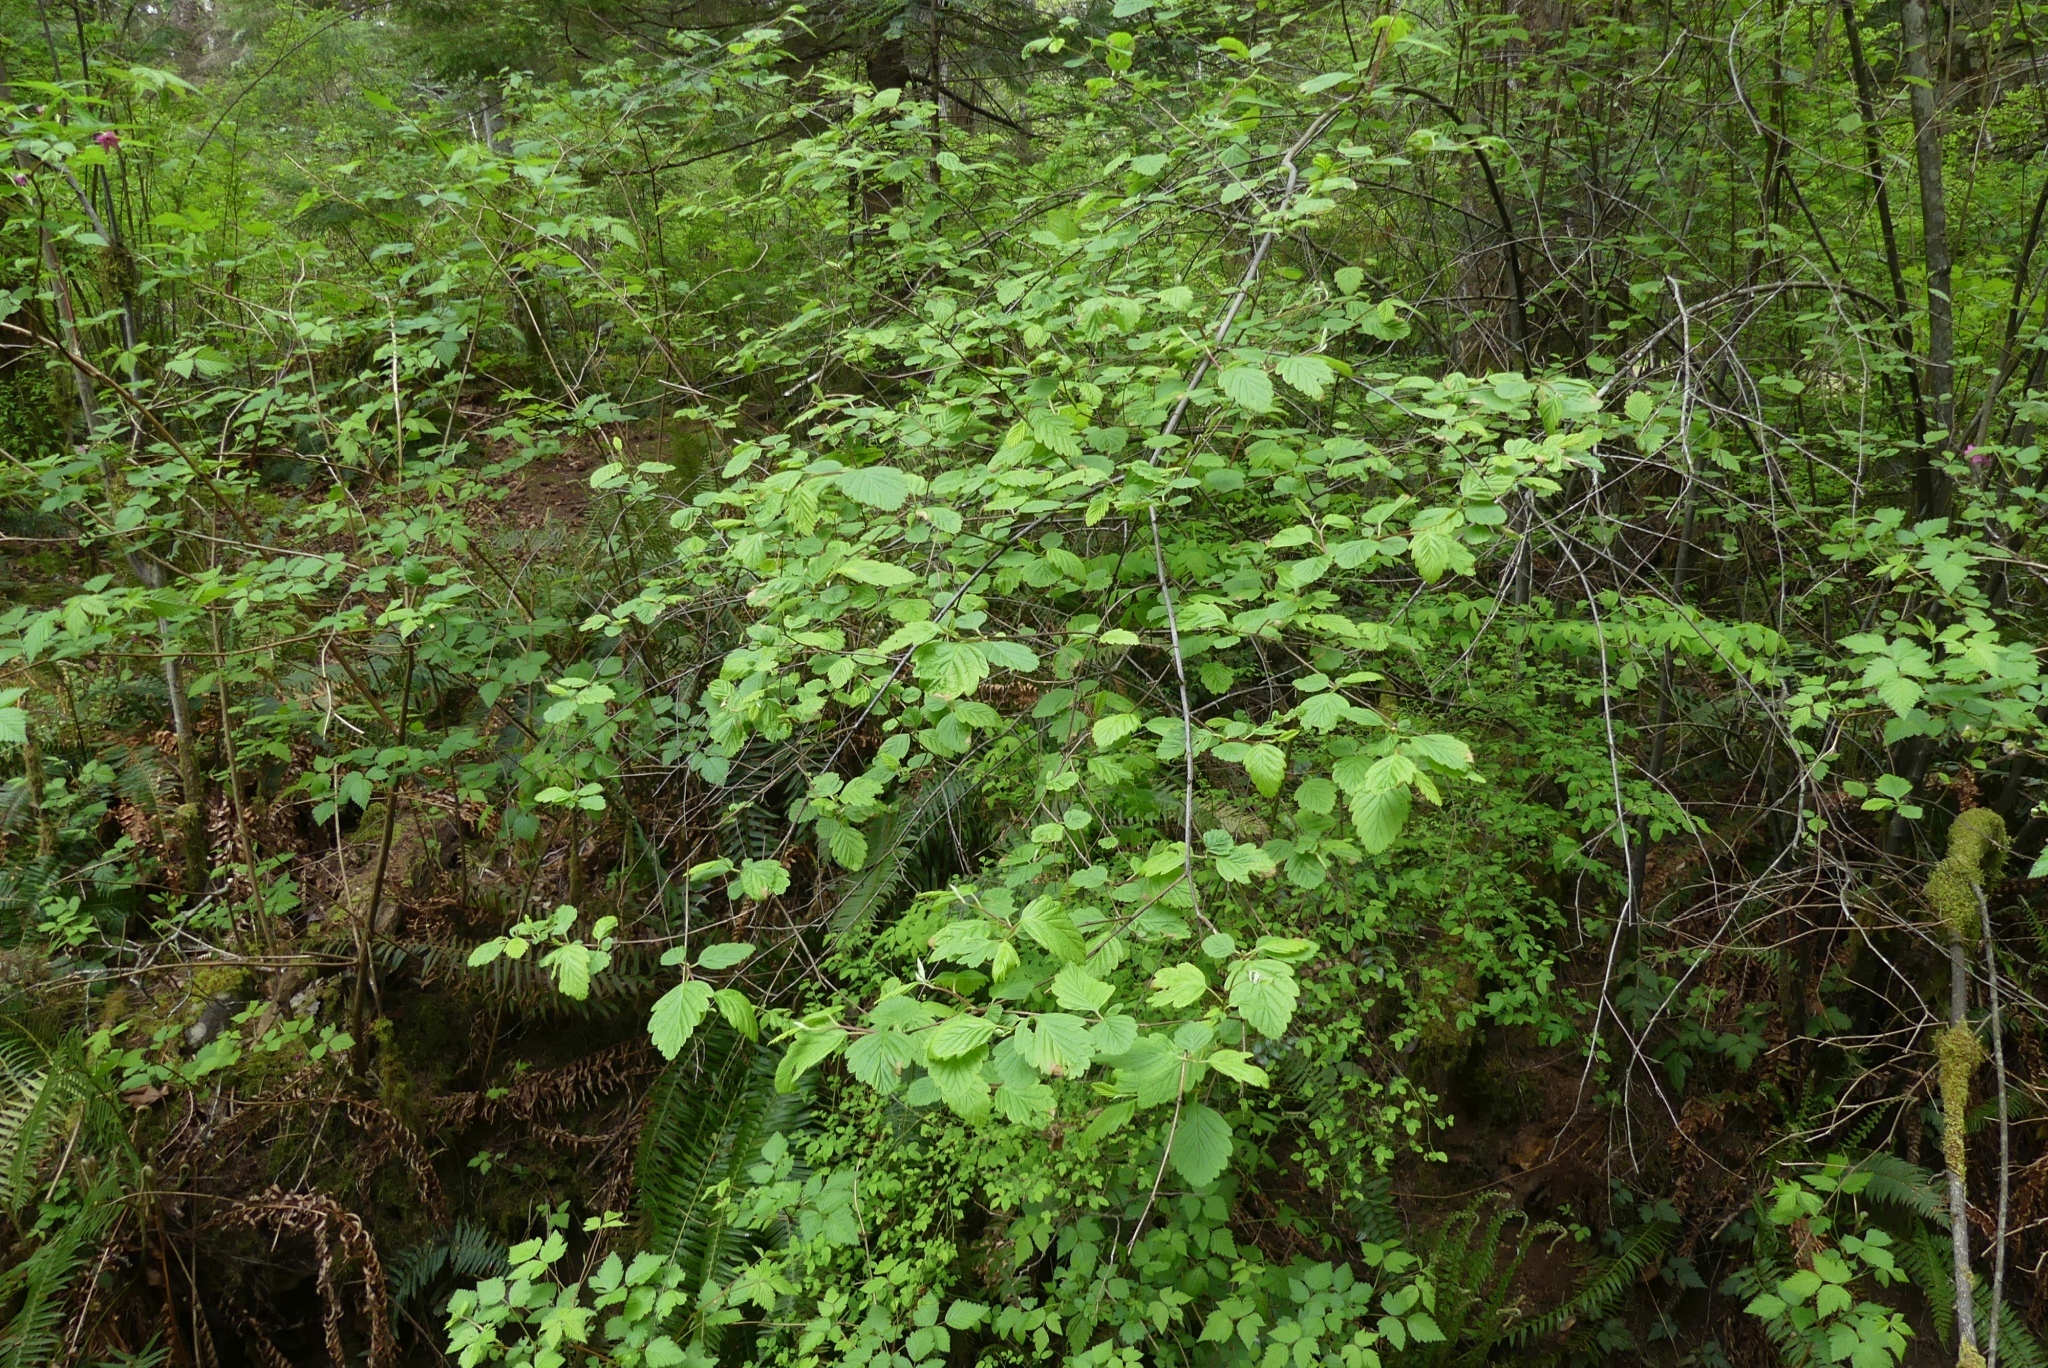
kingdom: Plantae
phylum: Tracheophyta
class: Magnoliopsida
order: Rosales
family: Rosaceae
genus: Holodiscus
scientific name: Holodiscus discolor
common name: Oceanspray
